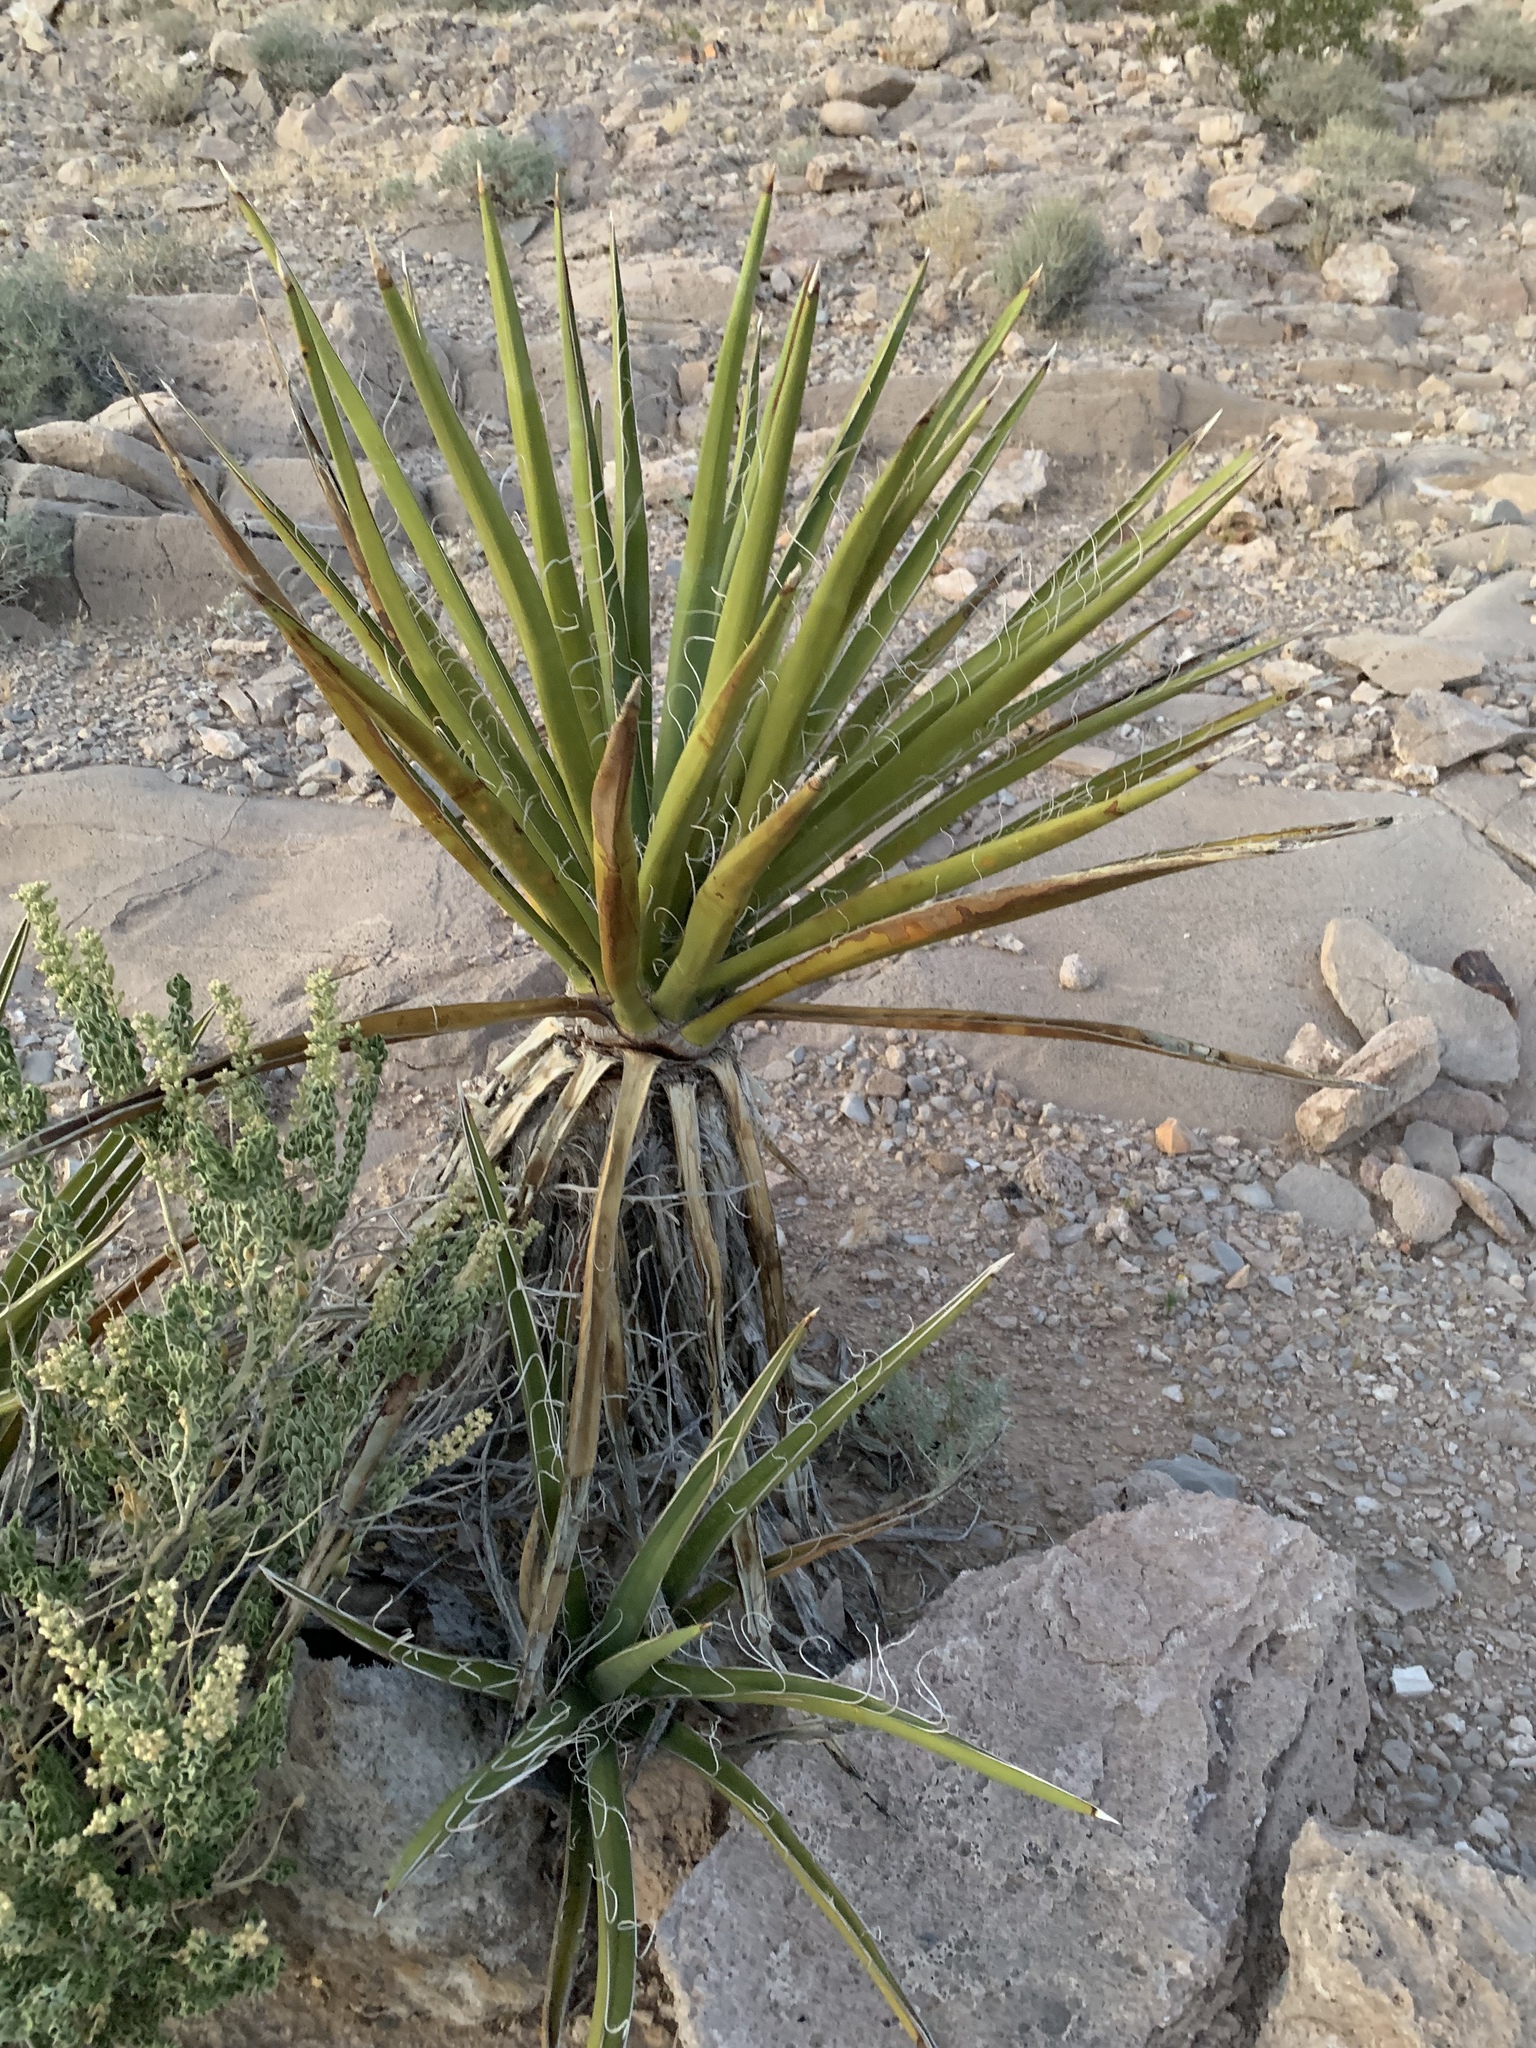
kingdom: Plantae
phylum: Tracheophyta
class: Liliopsida
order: Asparagales
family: Asparagaceae
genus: Yucca
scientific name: Yucca schidigera
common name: Mojave yucca
